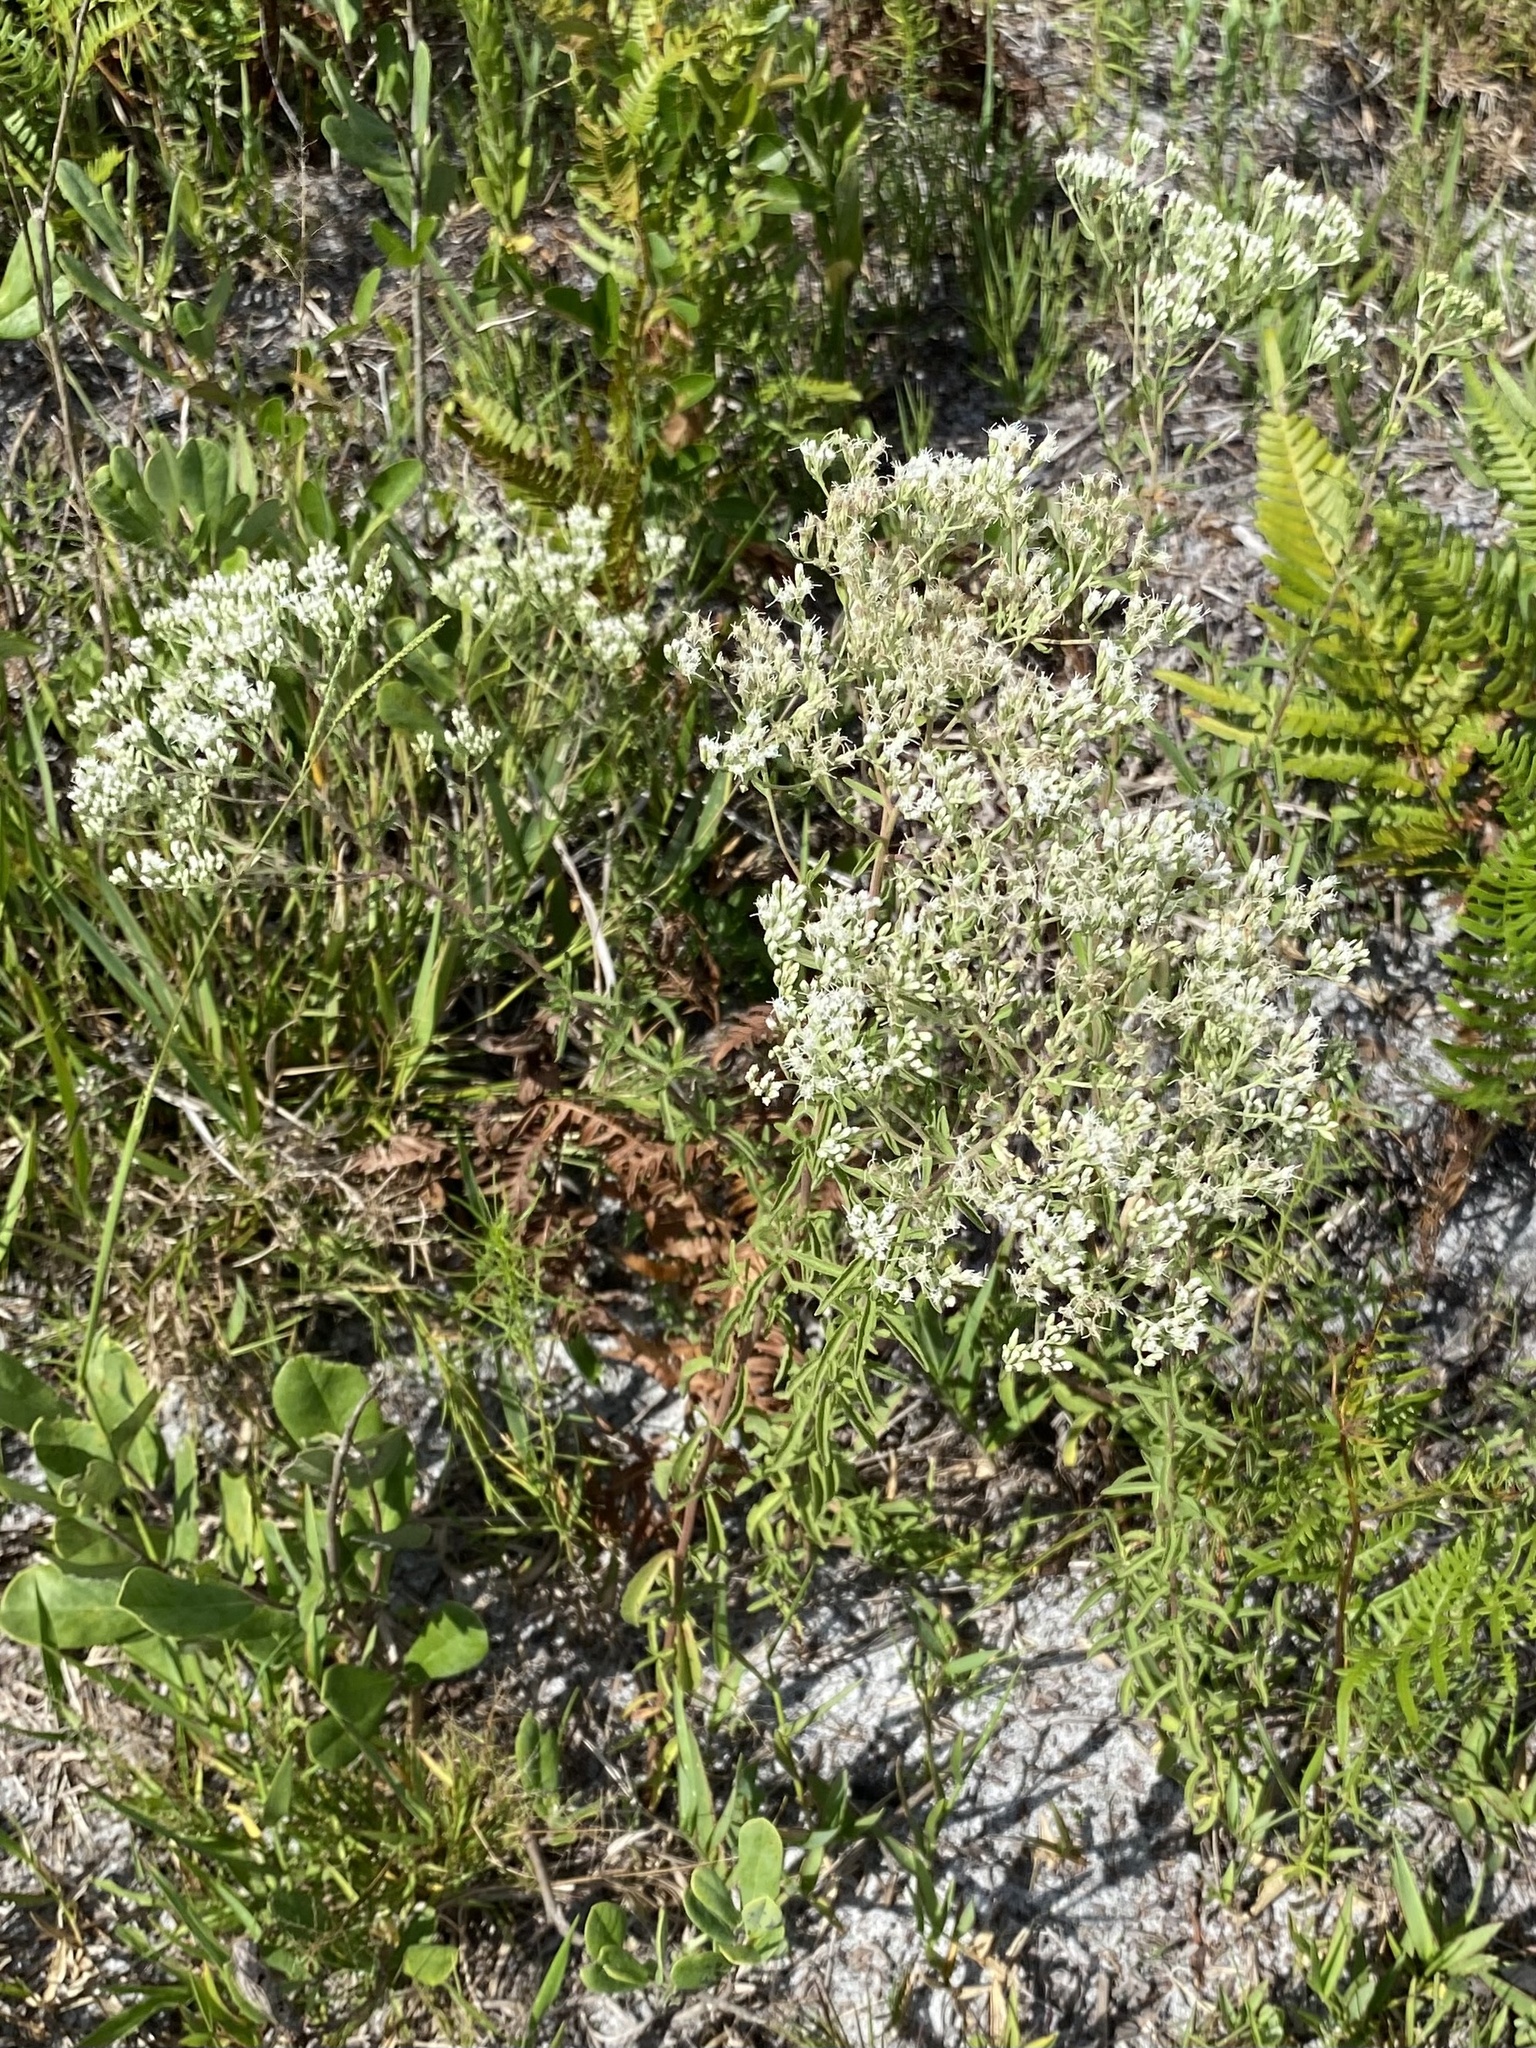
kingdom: Plantae
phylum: Tracheophyta
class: Magnoliopsida
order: Asterales
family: Asteraceae
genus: Eupatorium
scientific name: Eupatorium mohrii
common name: Mohr's thoroughwort
